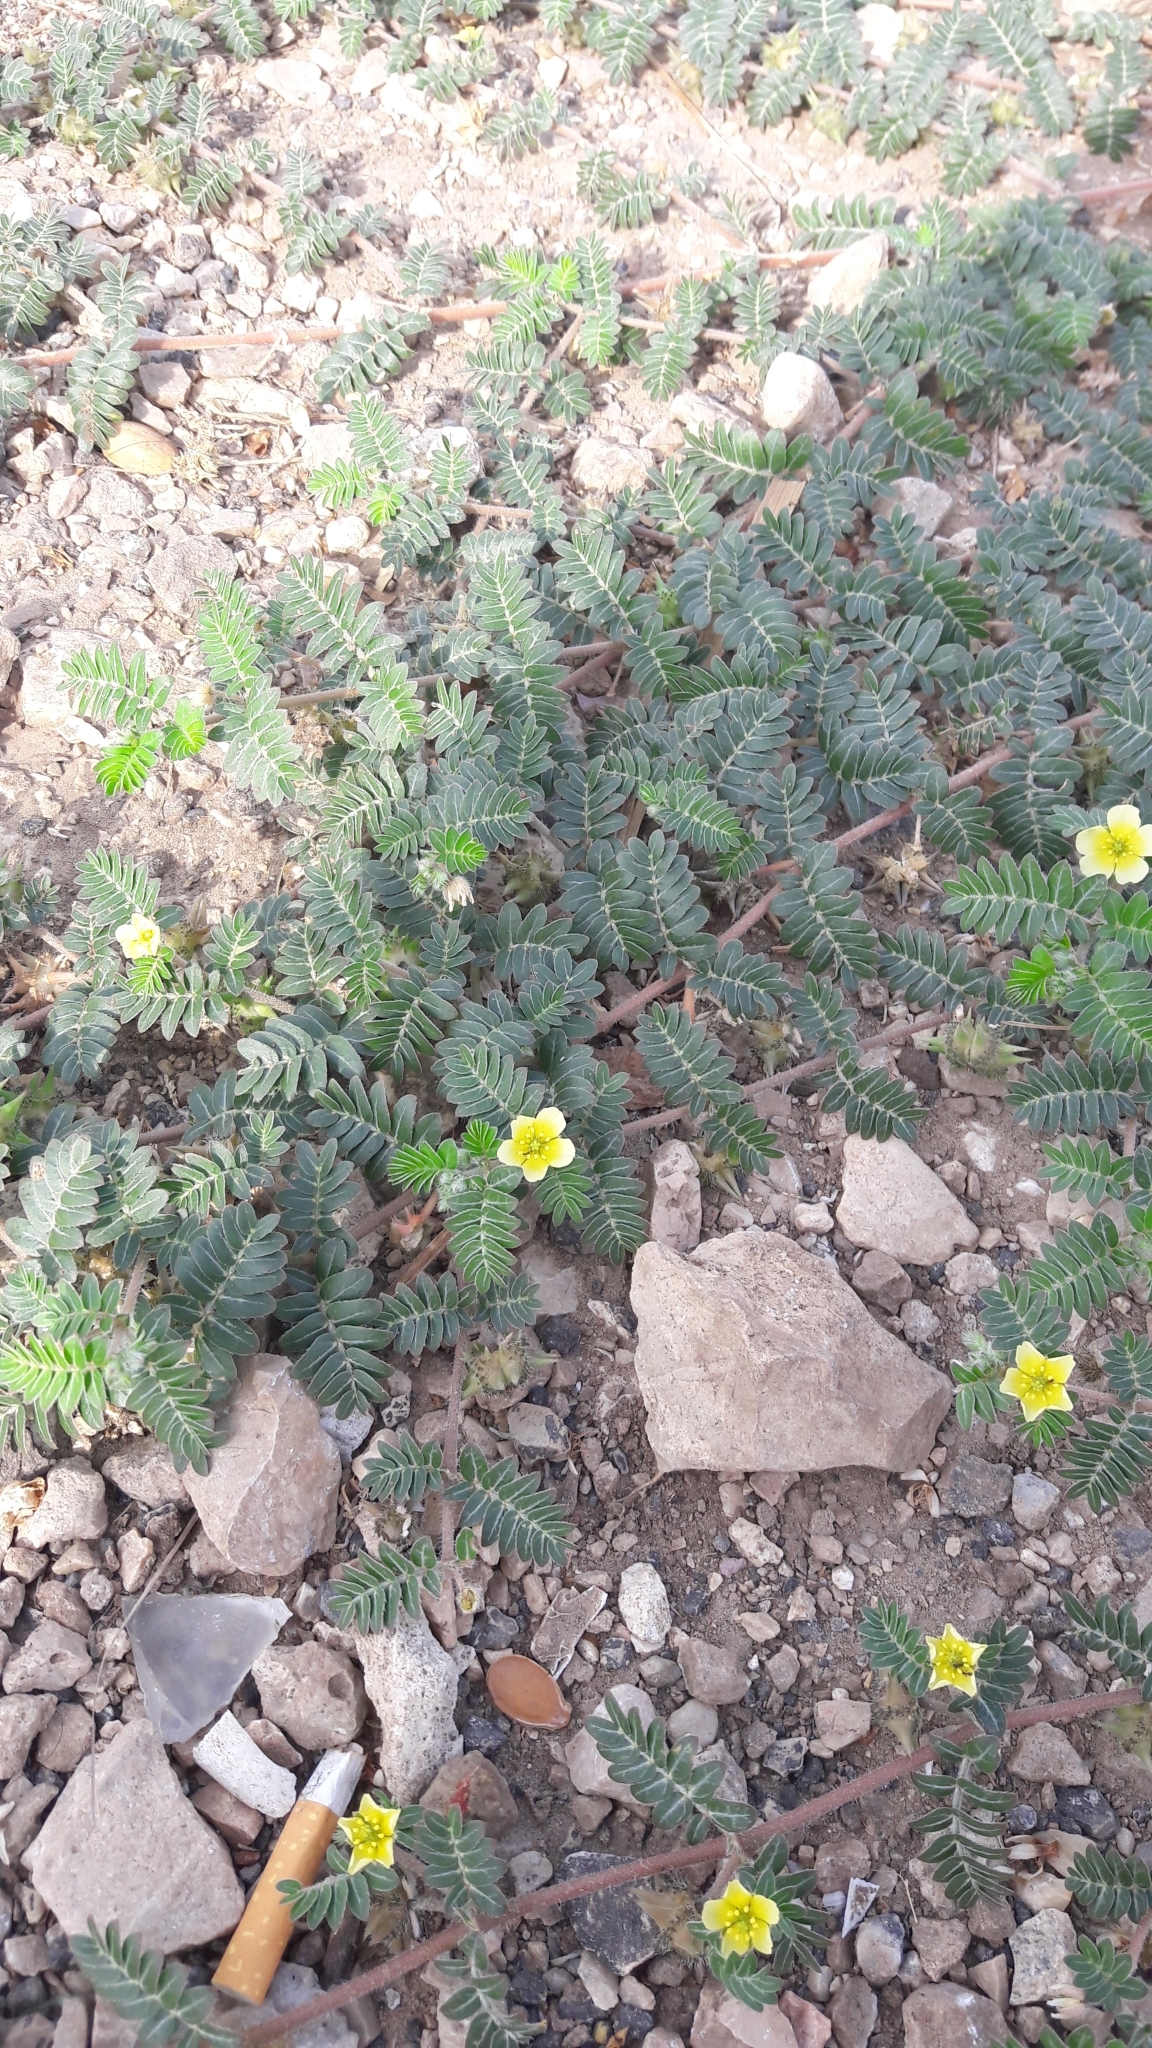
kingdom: Plantae
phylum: Tracheophyta
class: Magnoliopsida
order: Zygophyllales
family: Zygophyllaceae
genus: Tribulus
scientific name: Tribulus terrestris
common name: Puncturevine
